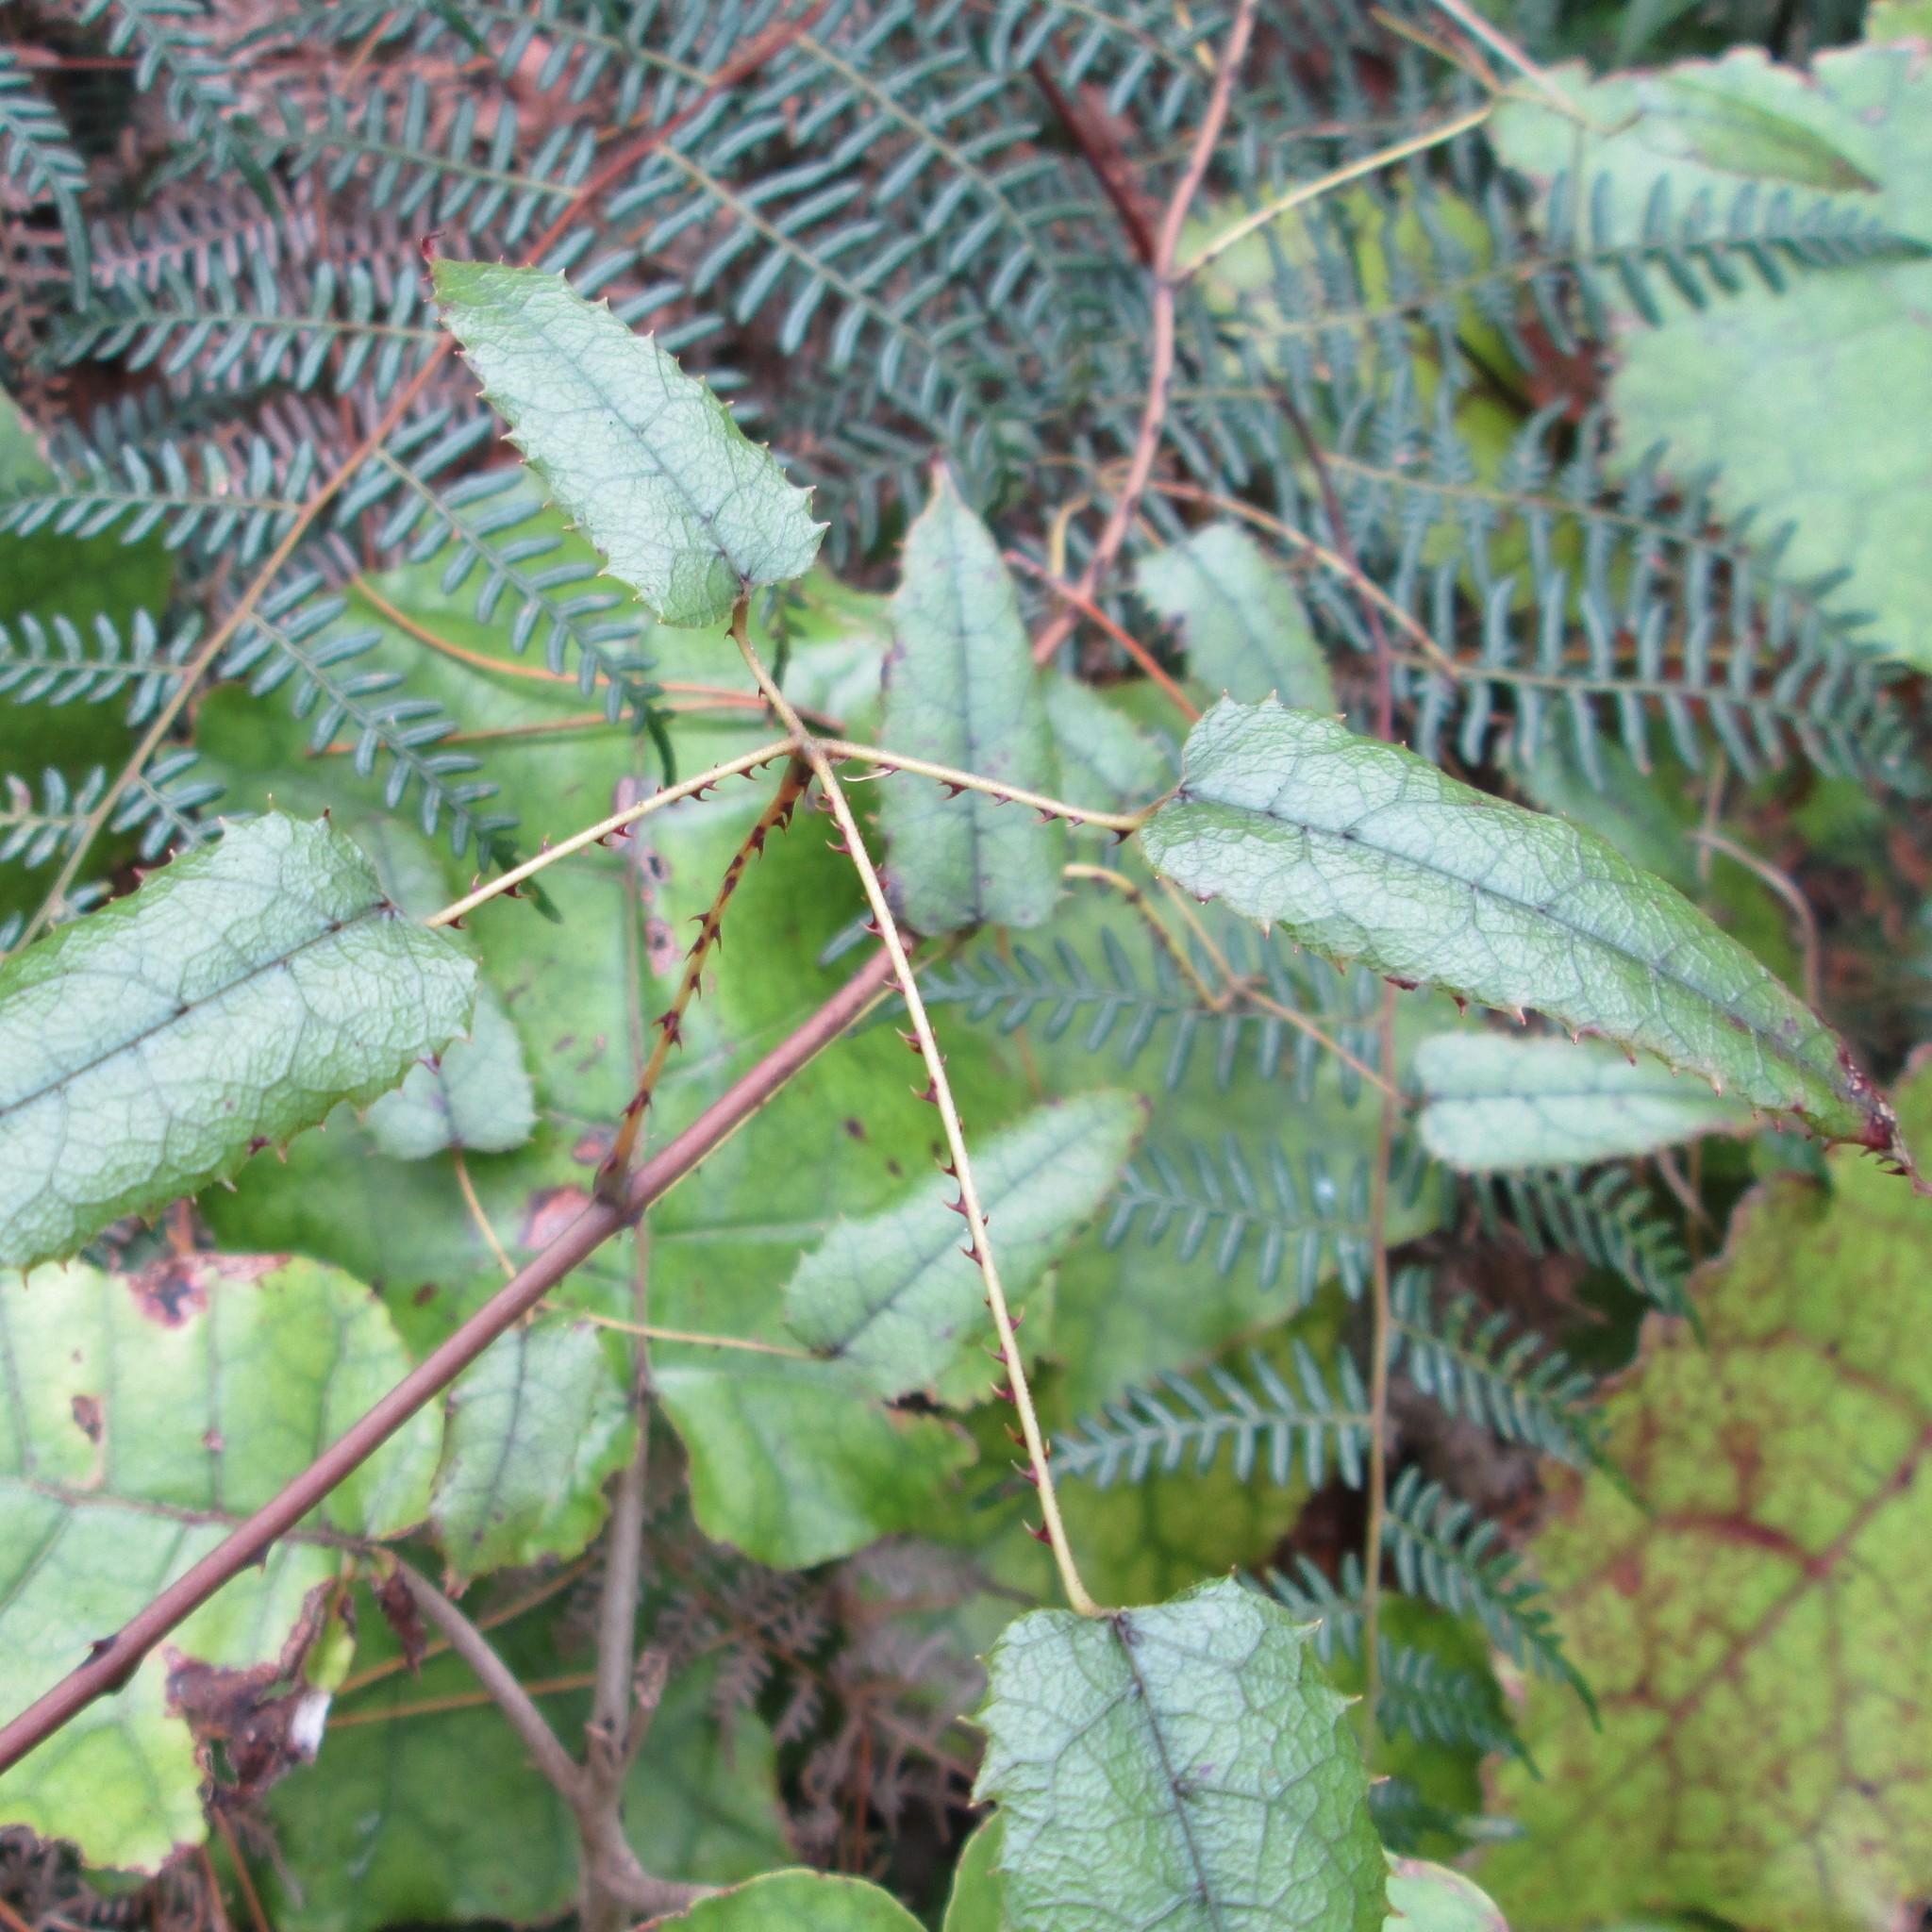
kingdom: Plantae
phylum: Tracheophyta
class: Magnoliopsida
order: Rosales
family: Rosaceae
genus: Rubus
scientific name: Rubus cissoides
